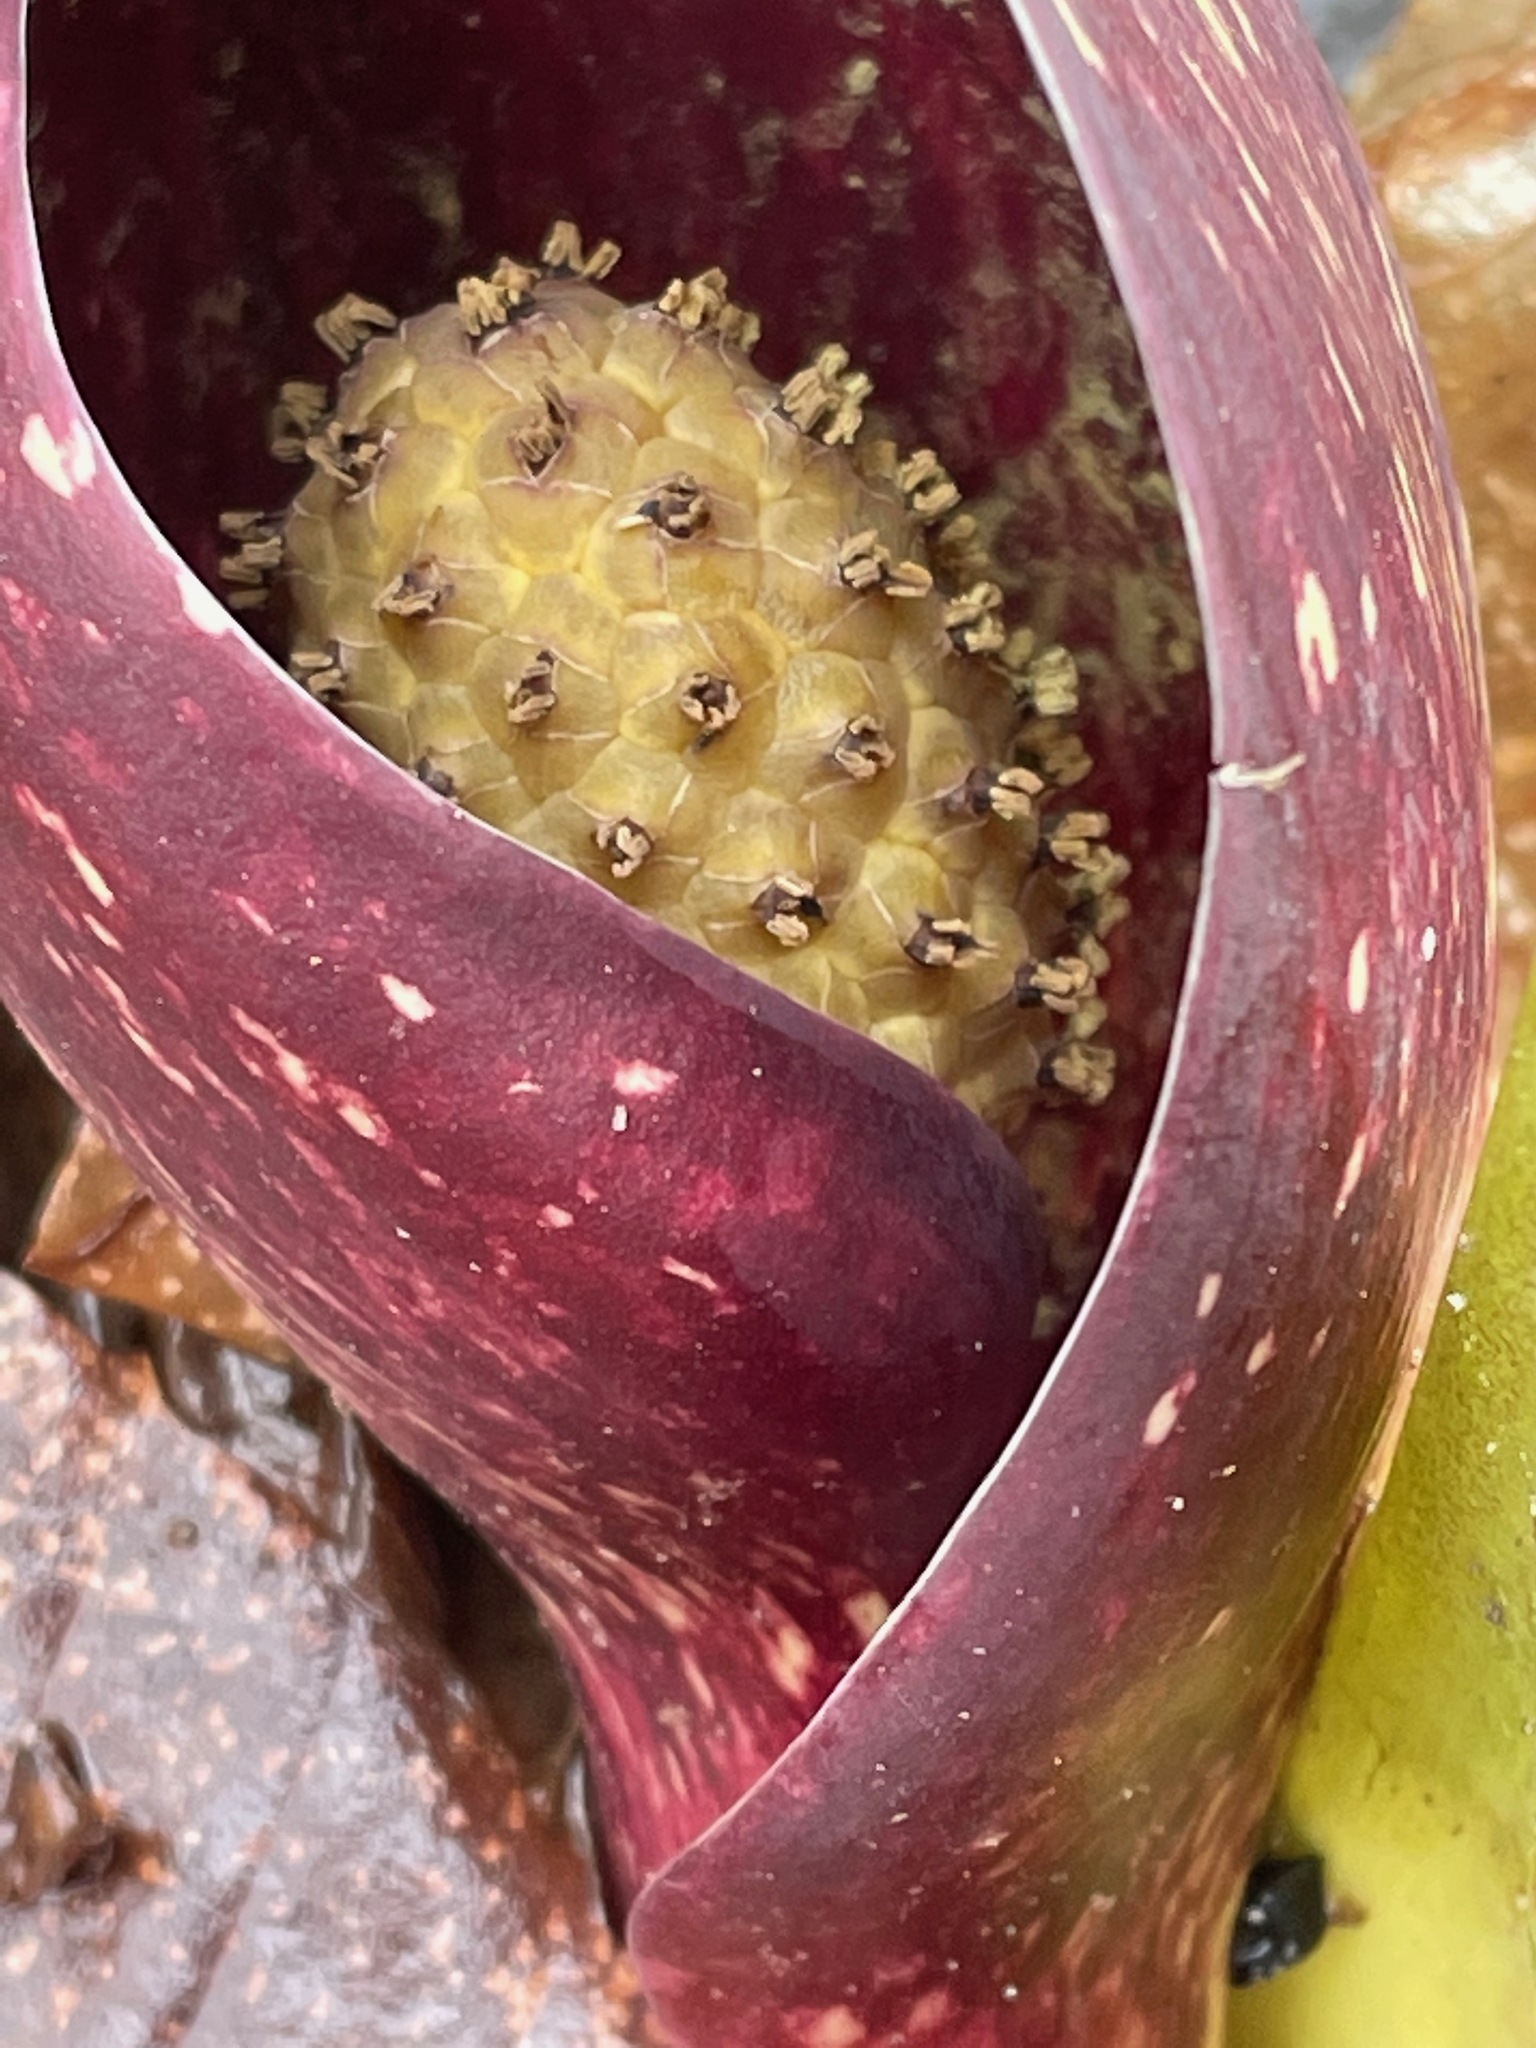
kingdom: Plantae
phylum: Tracheophyta
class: Liliopsida
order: Alismatales
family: Araceae
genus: Symplocarpus
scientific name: Symplocarpus foetidus
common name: Eastern skunk cabbage
